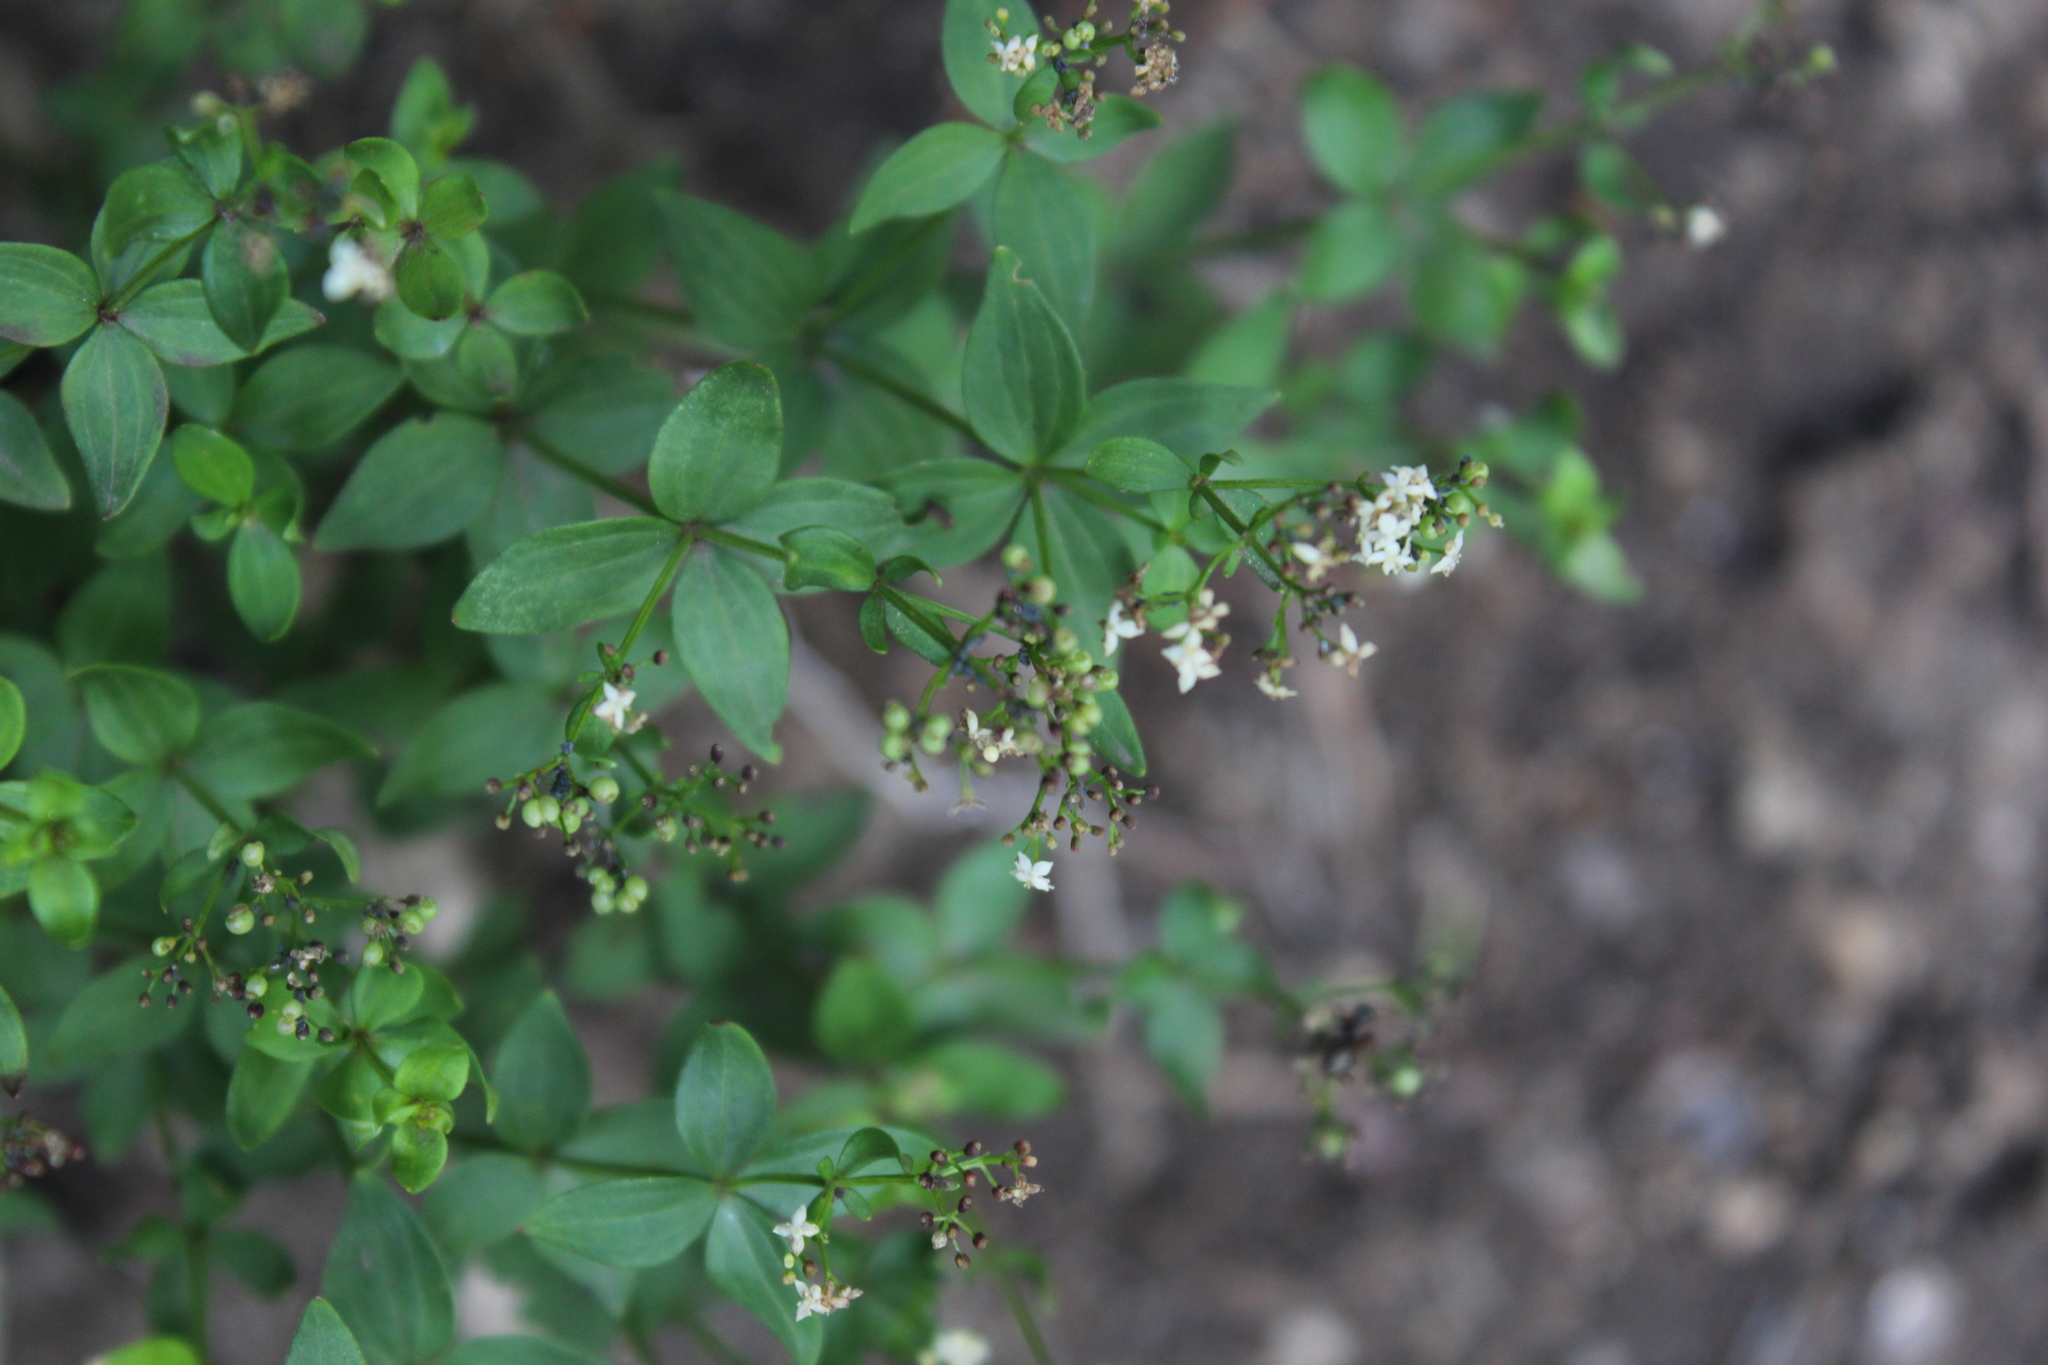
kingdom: Plantae
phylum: Tracheophyta
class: Magnoliopsida
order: Gentianales
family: Rubiaceae
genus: Galium
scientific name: Galium valantioides
